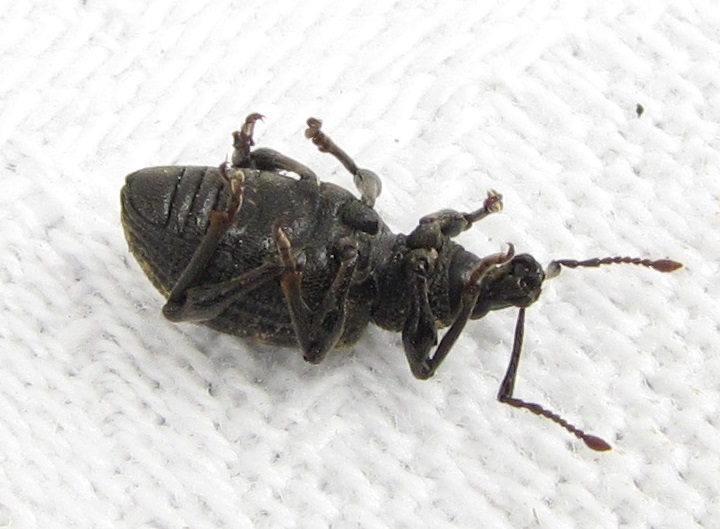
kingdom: Animalia
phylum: Arthropoda
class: Insecta
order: Coleoptera
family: Curculionidae
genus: Otiorhynchus
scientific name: Otiorhynchus sulcatus
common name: Black vine weevil
